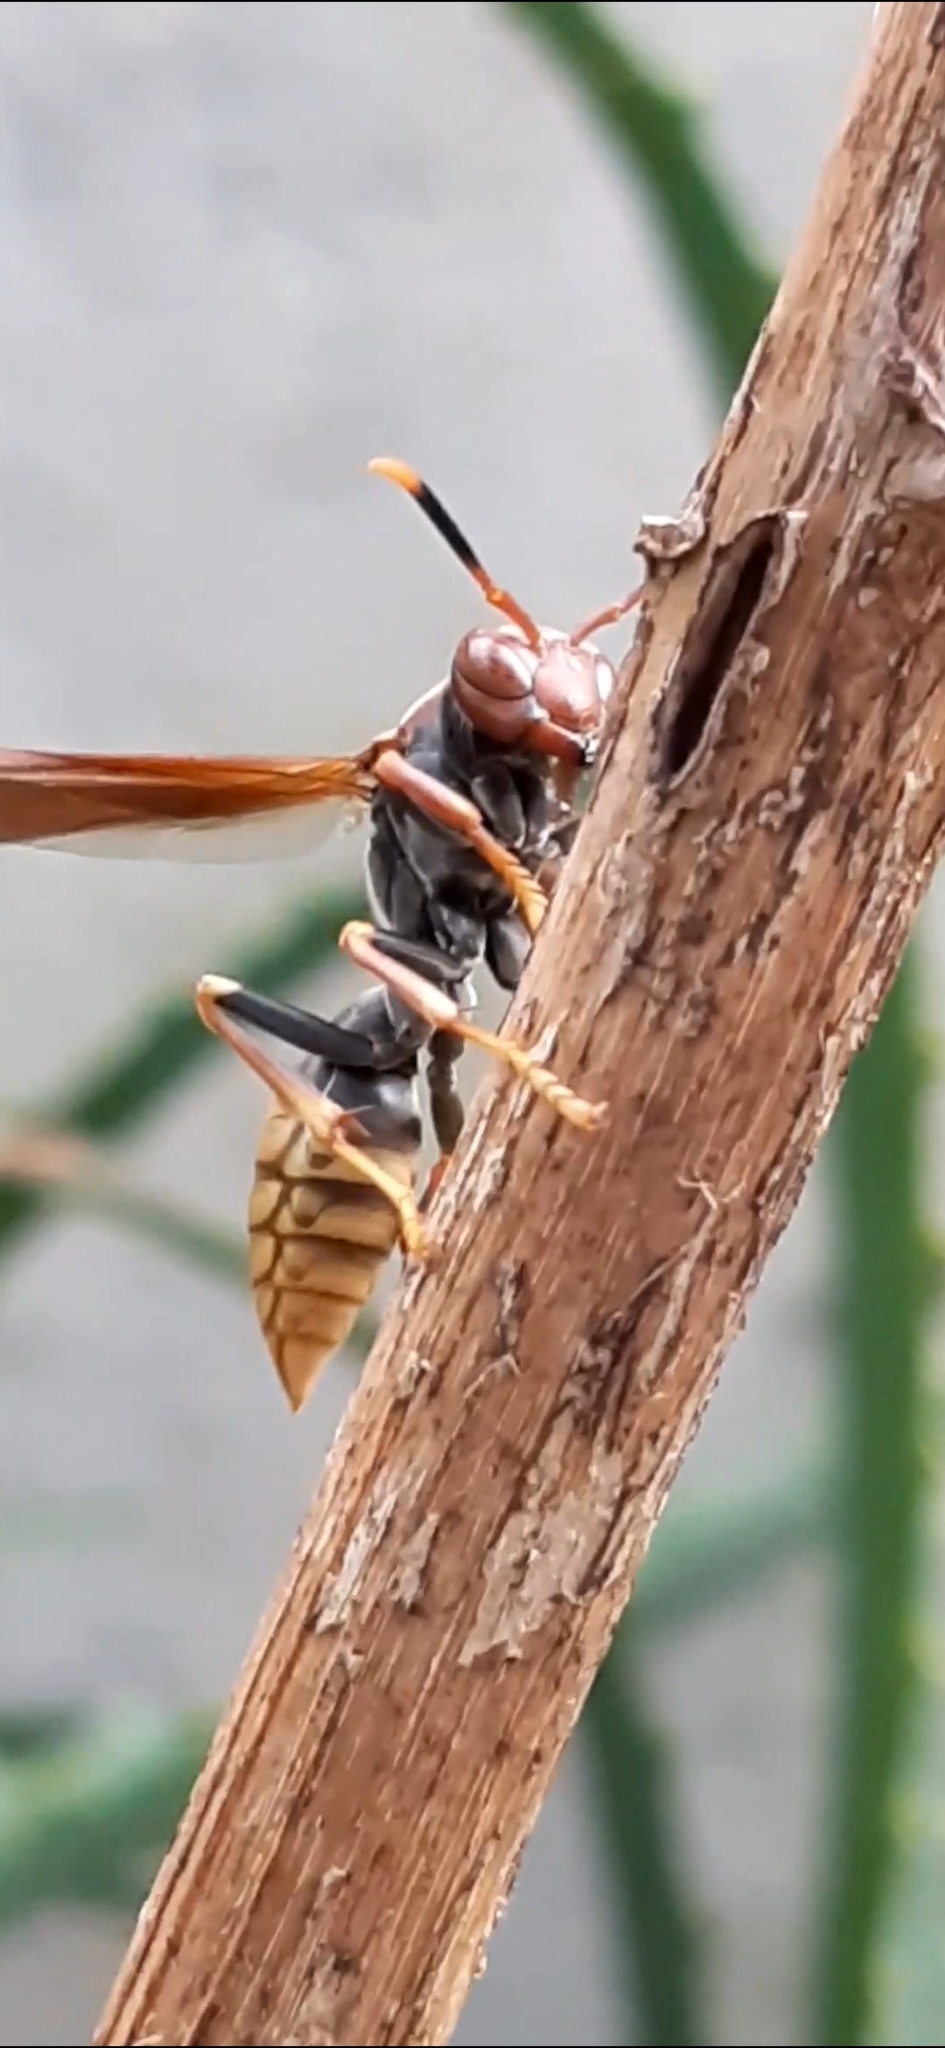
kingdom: Animalia
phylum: Arthropoda
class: Insecta
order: Hymenoptera
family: Eumenidae
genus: Polistes
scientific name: Polistes cavapytiformis
